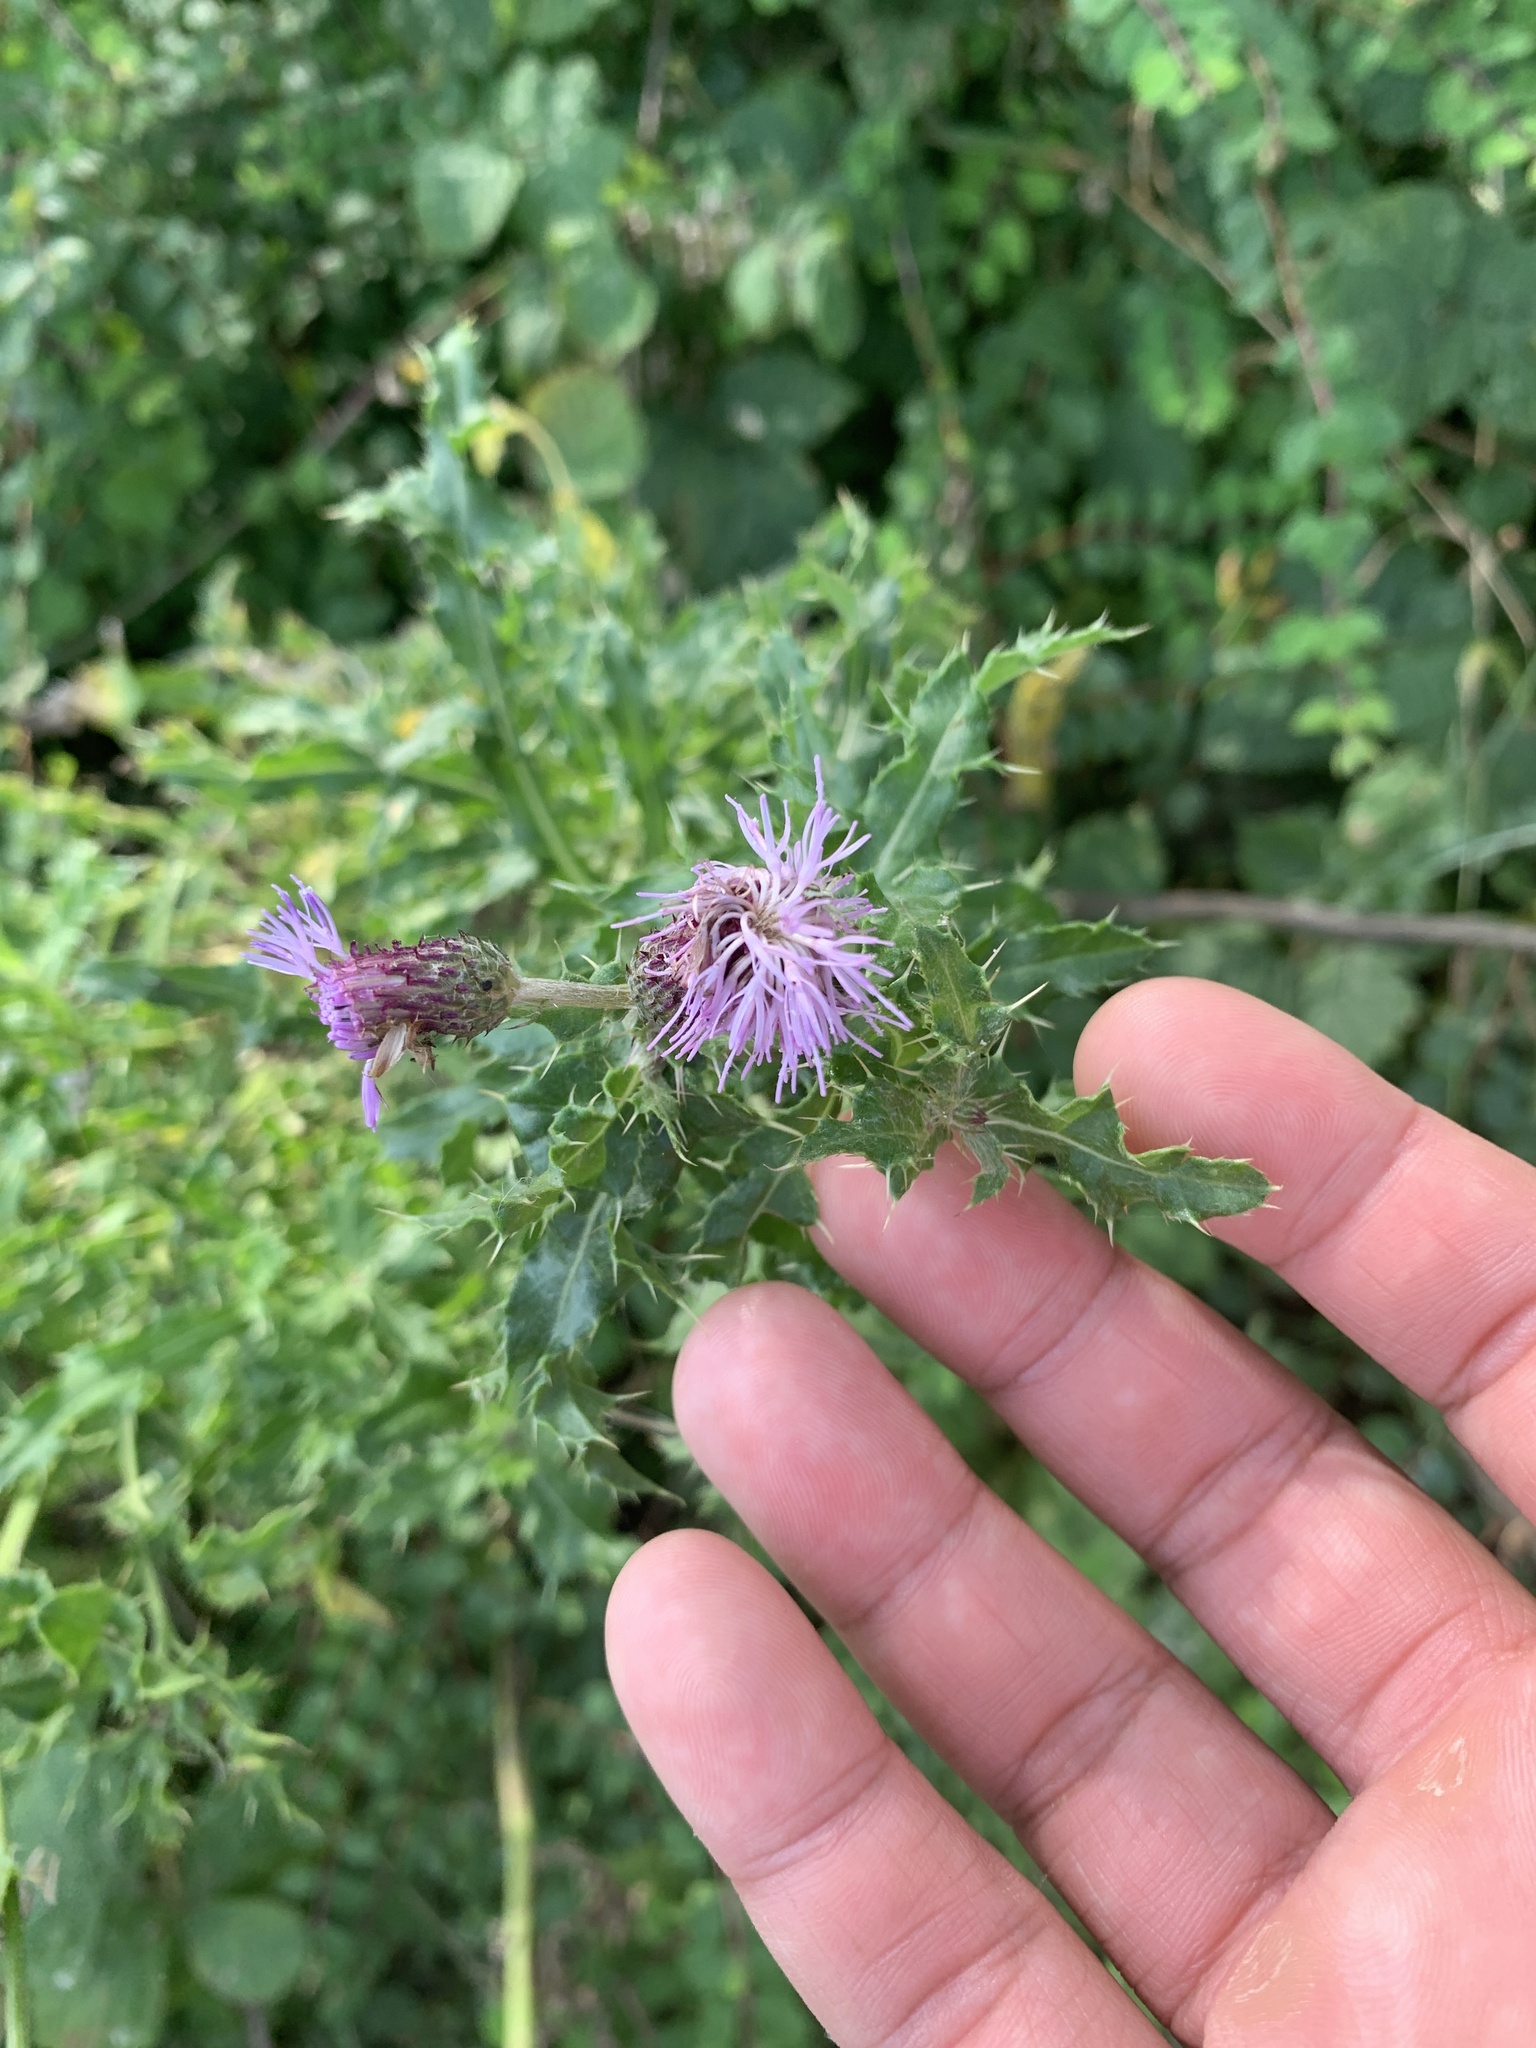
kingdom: Plantae
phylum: Tracheophyta
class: Magnoliopsida
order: Asterales
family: Asteraceae
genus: Cirsium
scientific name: Cirsium arvense
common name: Creeping thistle
